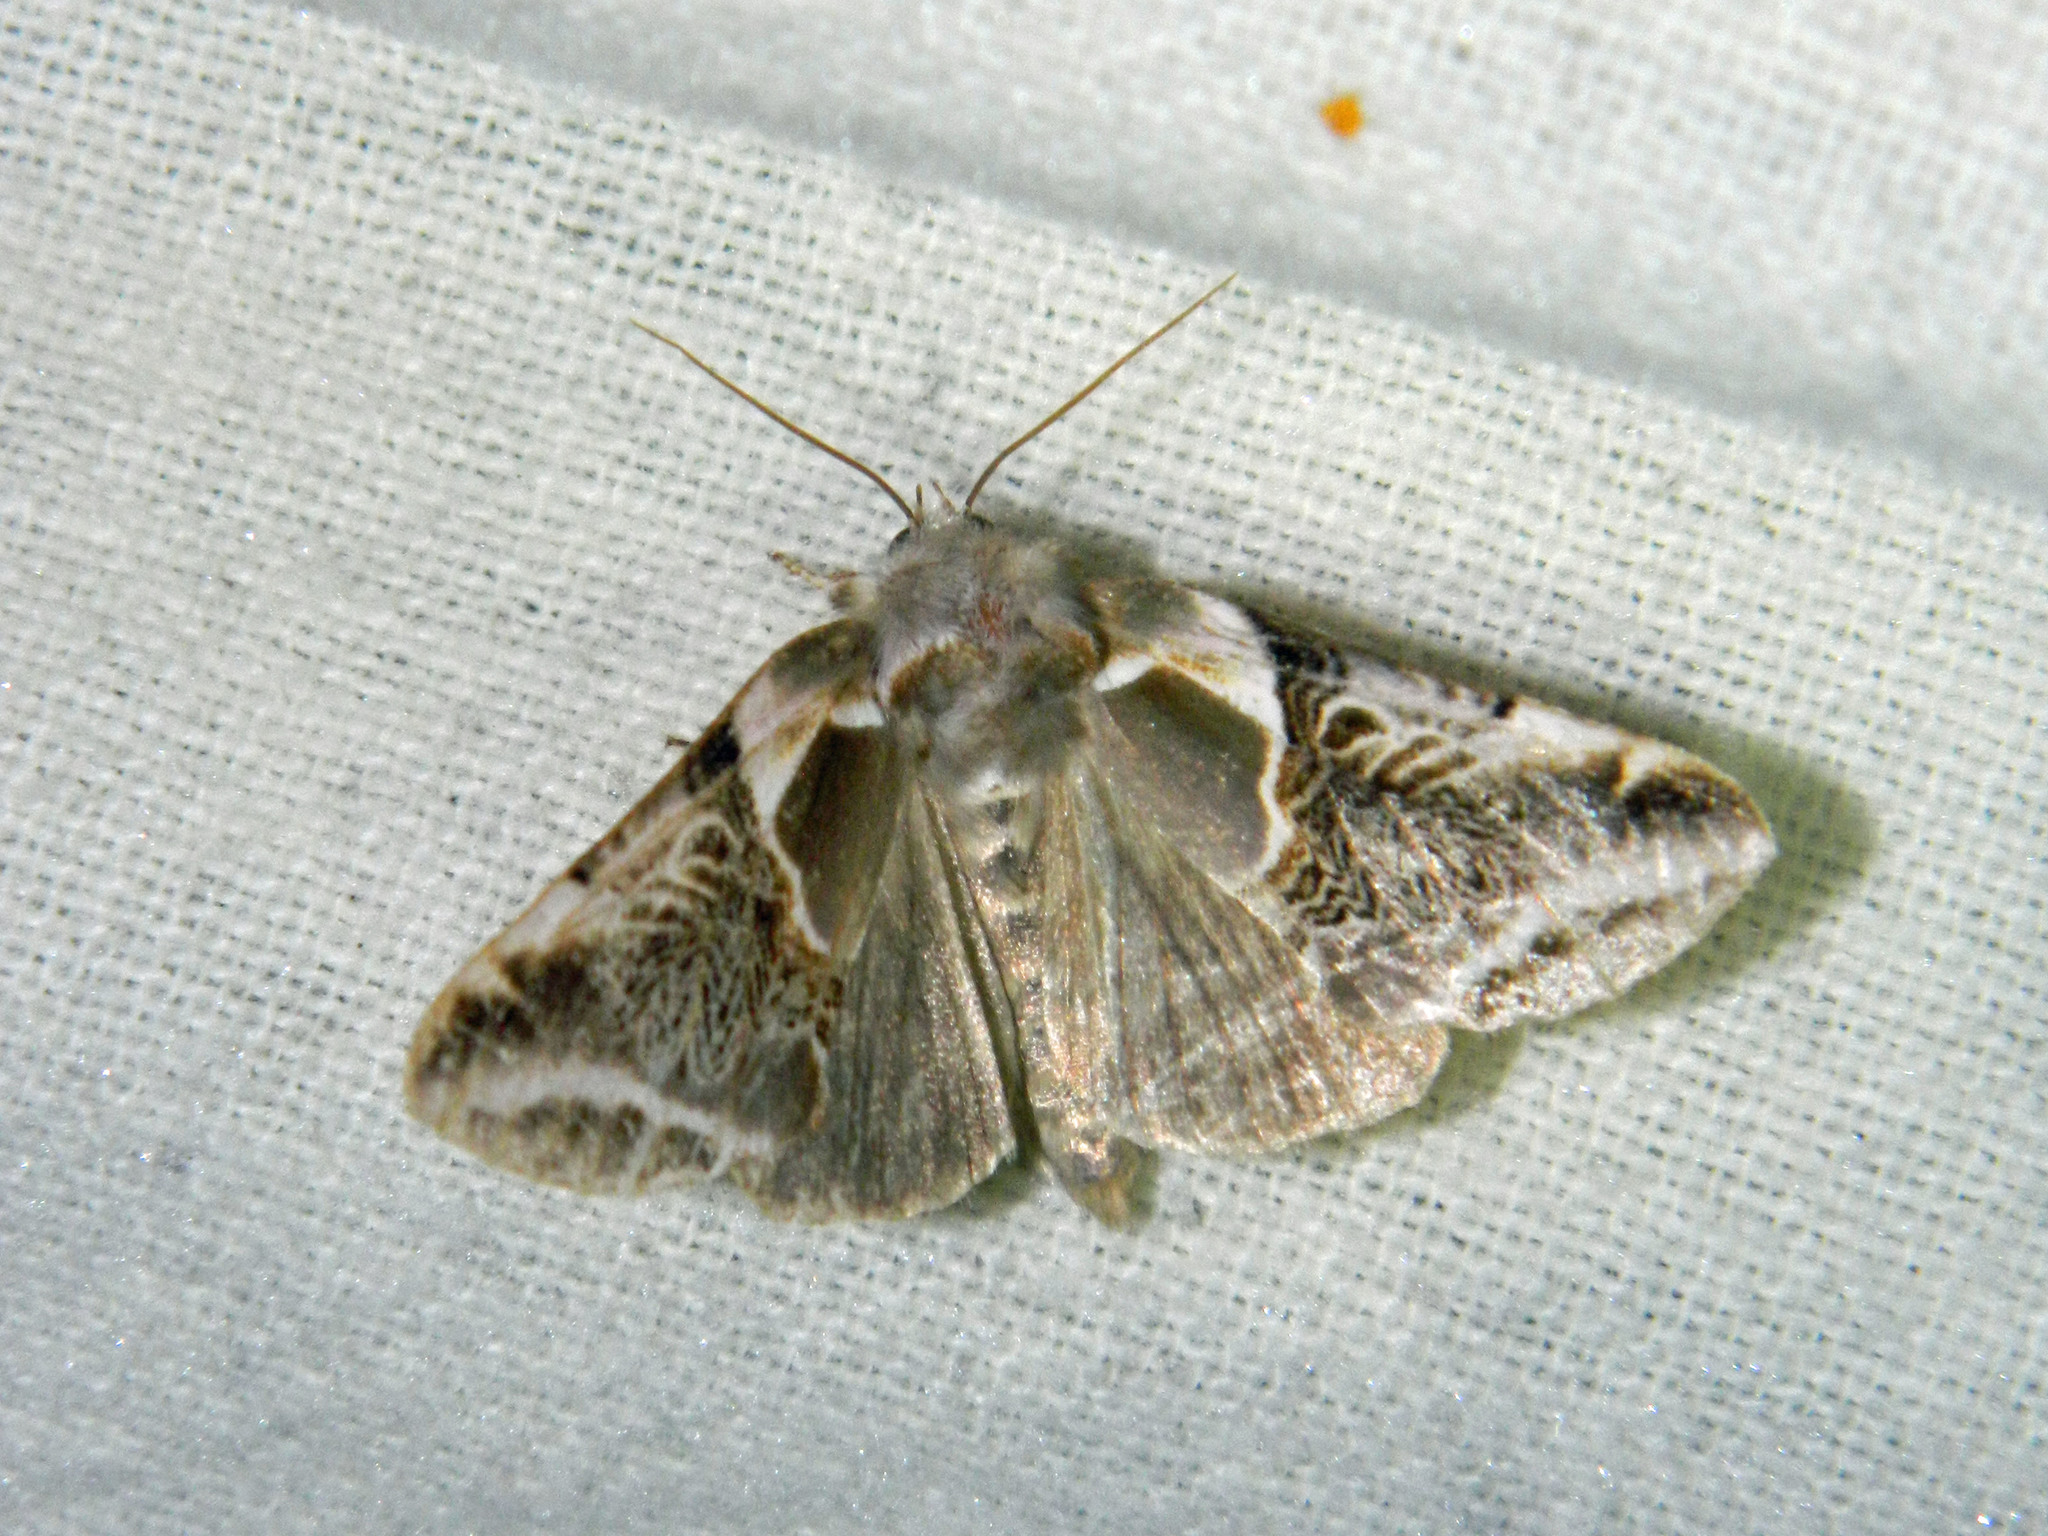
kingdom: Animalia
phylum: Arthropoda
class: Insecta
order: Lepidoptera
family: Drepanidae
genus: Habrosyne
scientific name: Habrosyne scripta
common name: Lettered habrosyne moth
